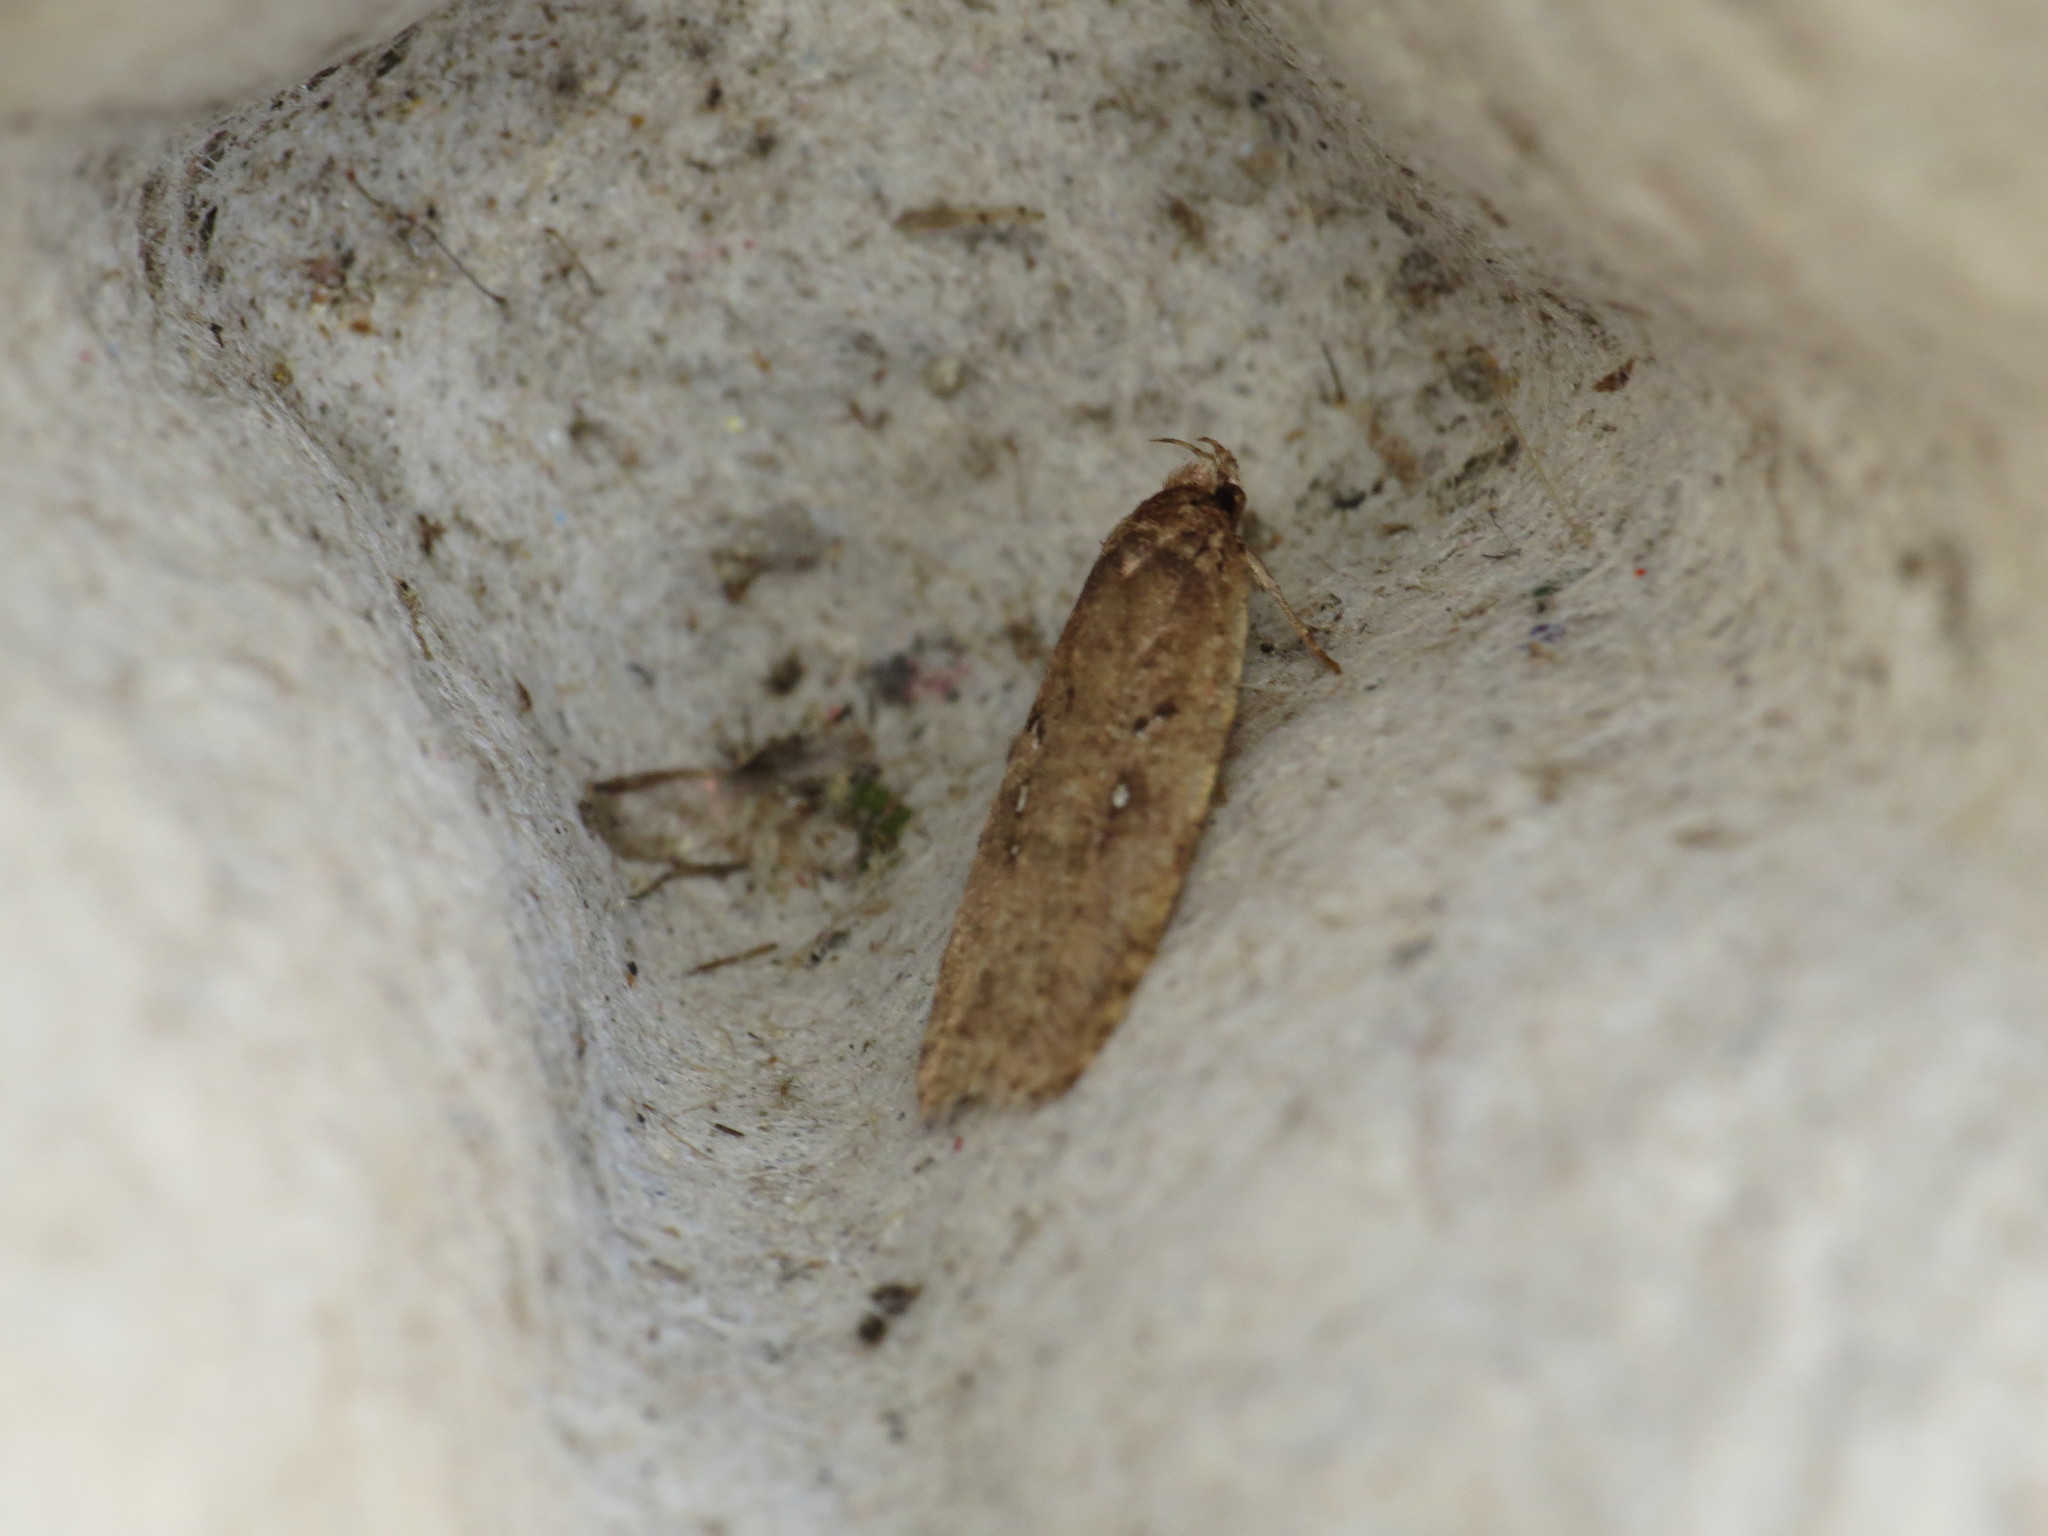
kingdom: Animalia
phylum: Arthropoda
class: Insecta
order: Lepidoptera
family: Depressariidae
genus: Agonopterix
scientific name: Agonopterix heracliana
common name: Common flat-body
